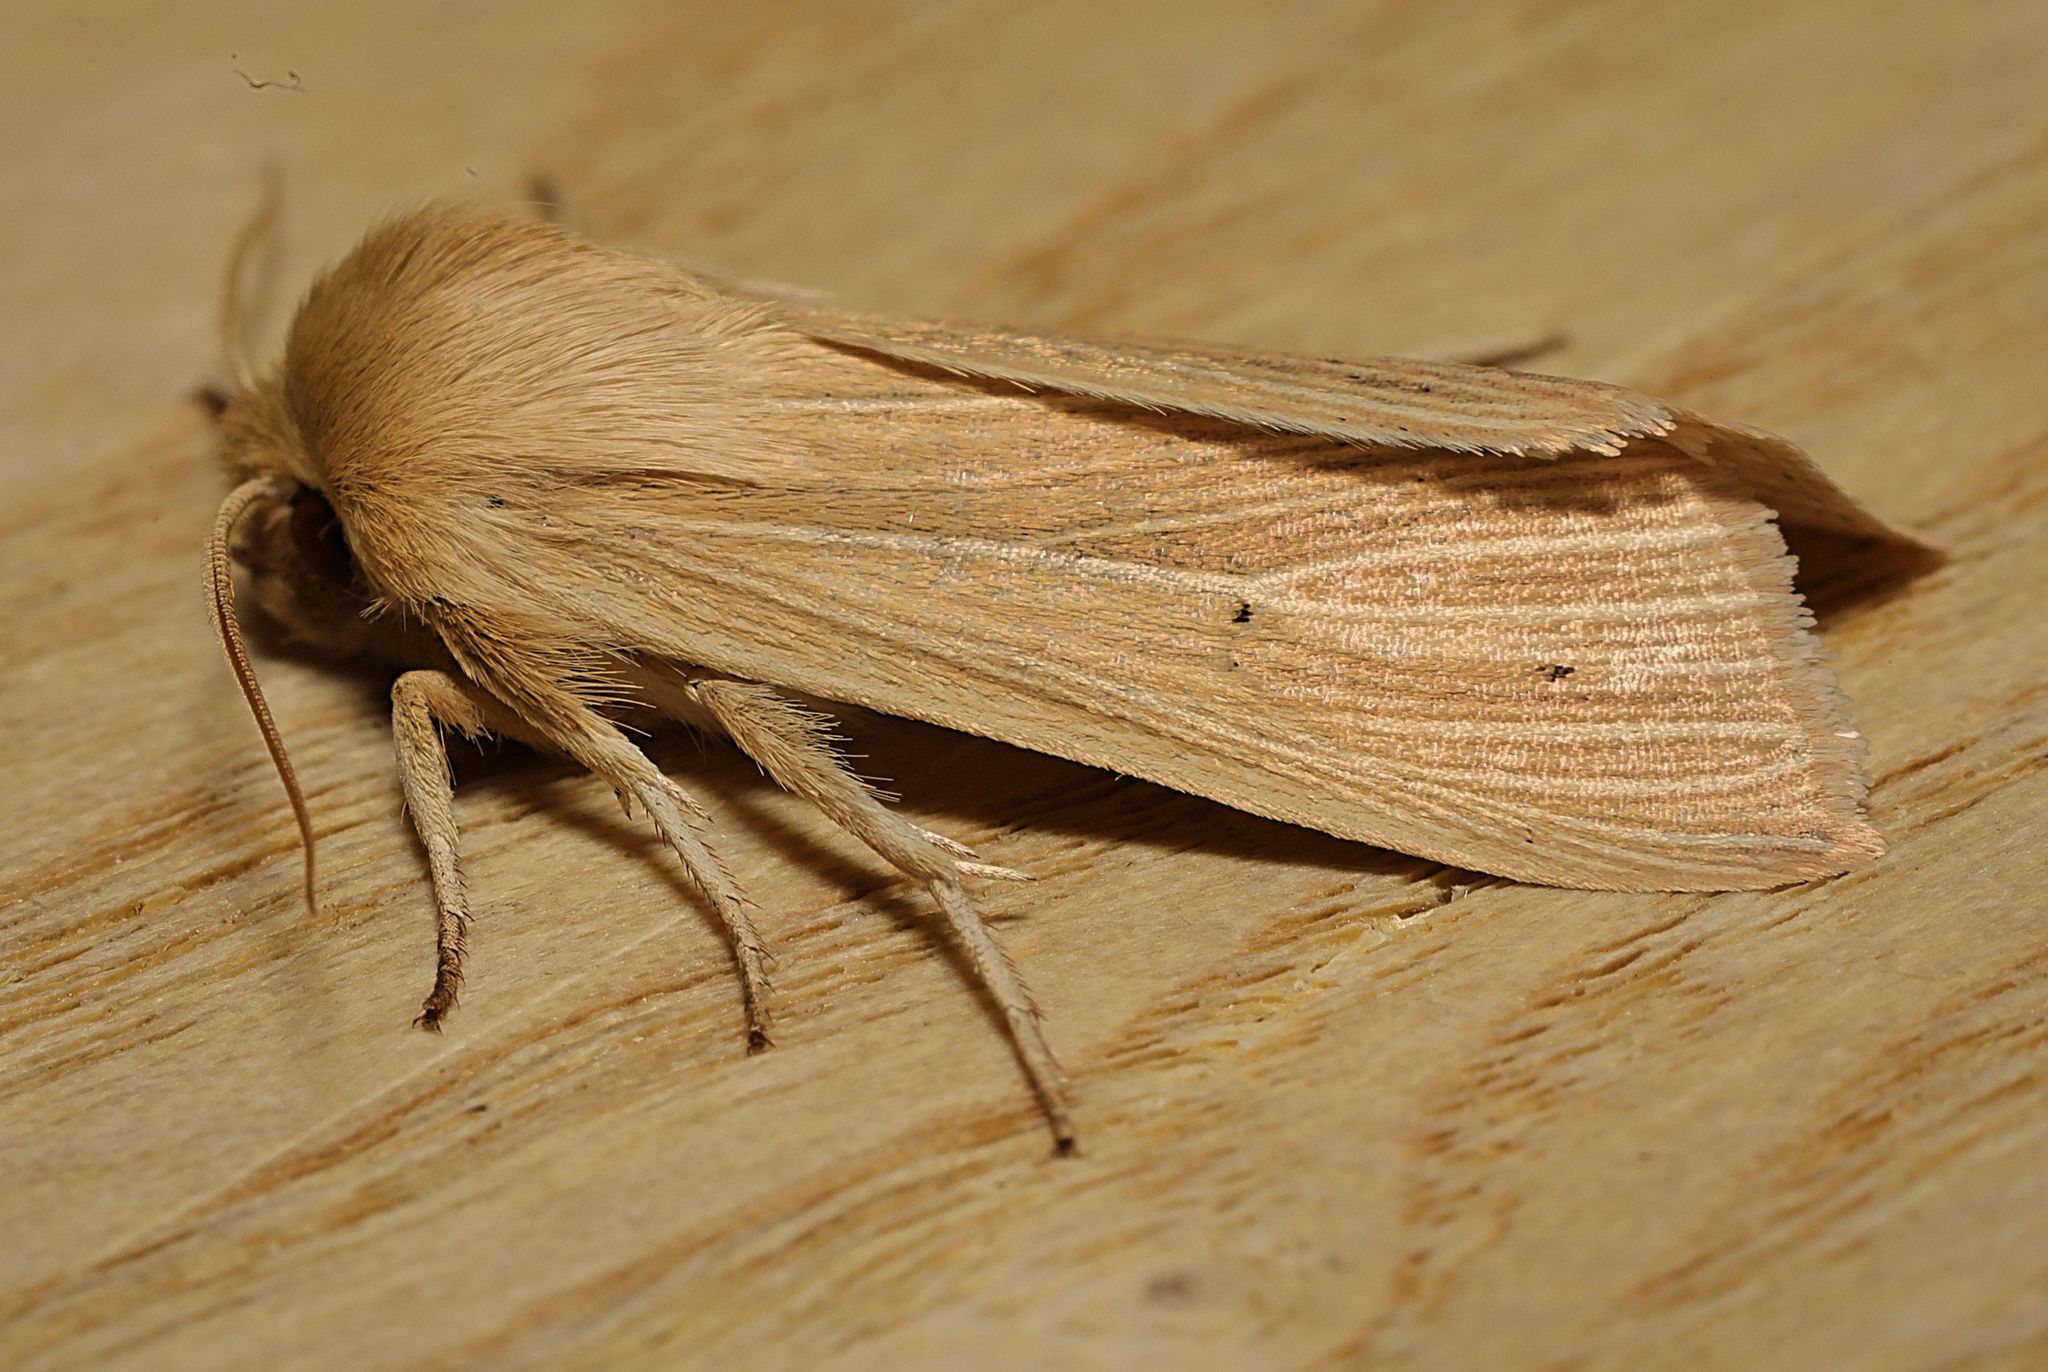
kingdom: Animalia
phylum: Arthropoda
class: Insecta
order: Lepidoptera
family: Noctuidae
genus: Mythimna
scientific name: Mythimna pallens
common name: Common wainscot
